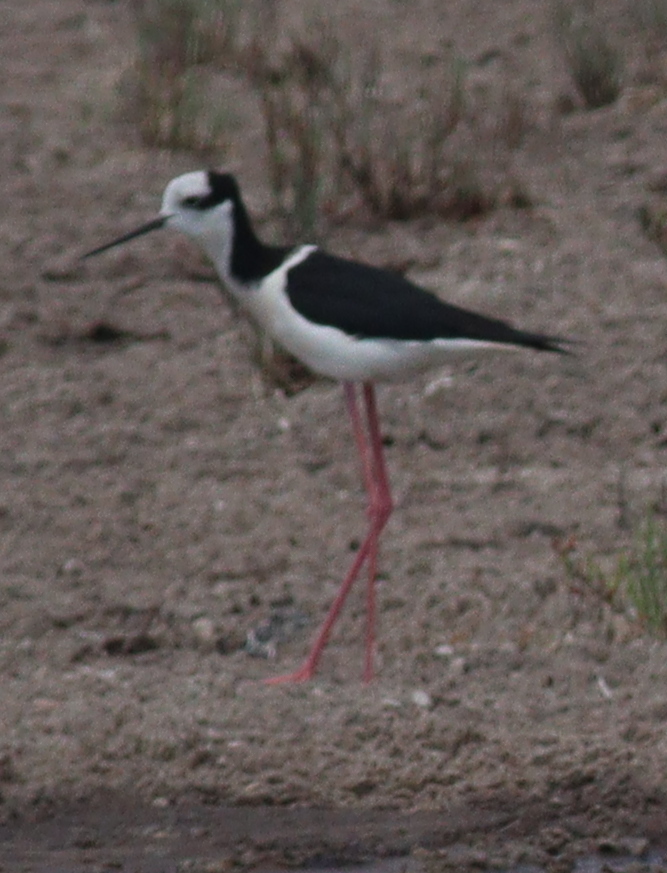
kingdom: Animalia
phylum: Chordata
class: Aves
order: Charadriiformes
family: Recurvirostridae
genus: Himantopus
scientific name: Himantopus mexicanus
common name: Black-necked stilt
